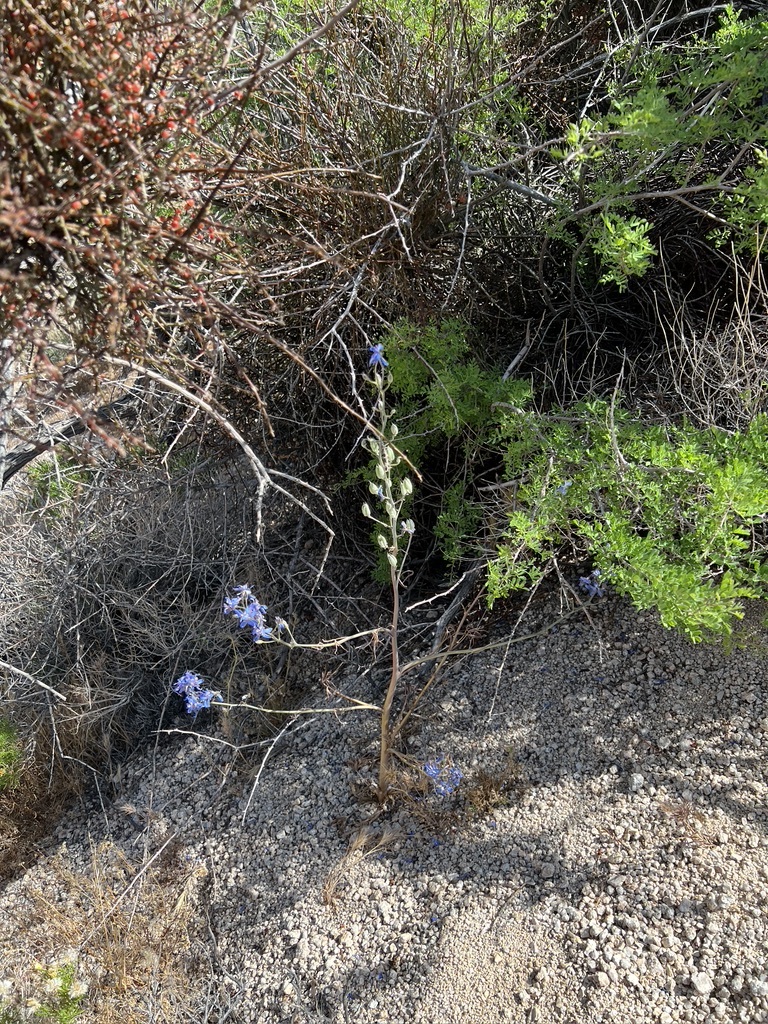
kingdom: Plantae
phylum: Tracheophyta
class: Magnoliopsida
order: Ranunculales
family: Ranunculaceae
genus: Delphinium
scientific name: Delphinium parishii
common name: Apache larkspur
